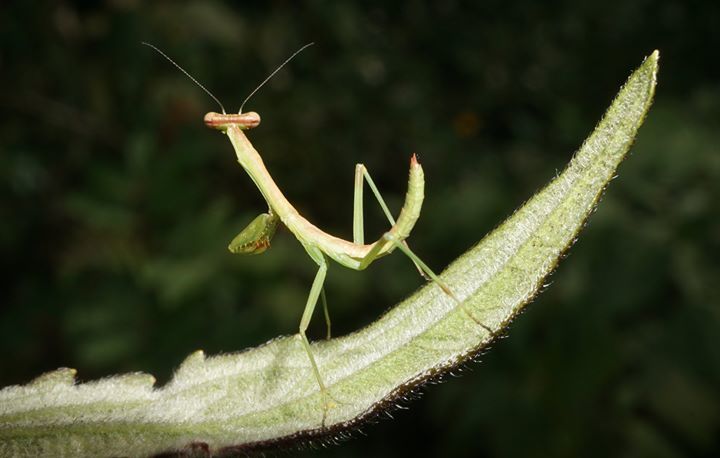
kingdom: Animalia
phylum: Arthropoda
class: Insecta
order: Mantodea
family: Mantidae
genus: Stagmomantis
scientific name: Stagmomantis carolina
